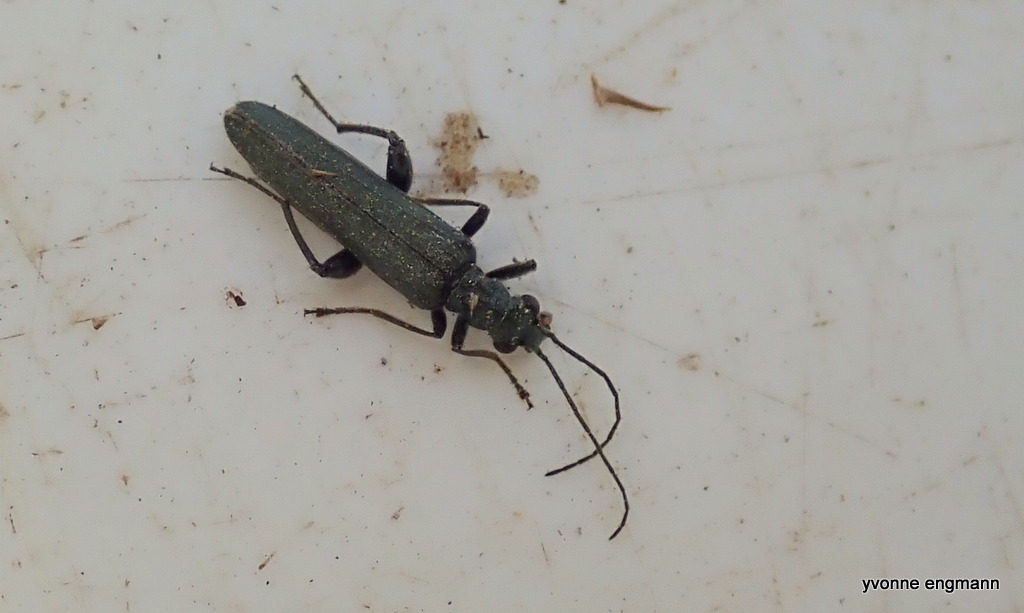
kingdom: Animalia
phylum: Arthropoda
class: Insecta
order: Coleoptera
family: Oedemeridae
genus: Oedemera
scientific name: Oedemera virescens
